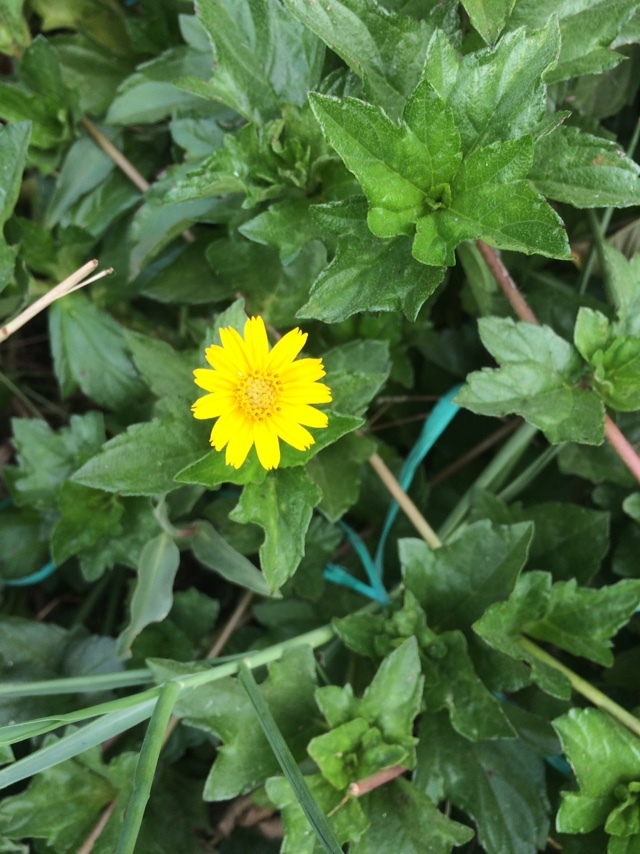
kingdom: Plantae
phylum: Tracheophyta
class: Magnoliopsida
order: Asterales
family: Asteraceae
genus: Sphagneticola
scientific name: Sphagneticola trilobata
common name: Bay biscayne creeping-oxeye
